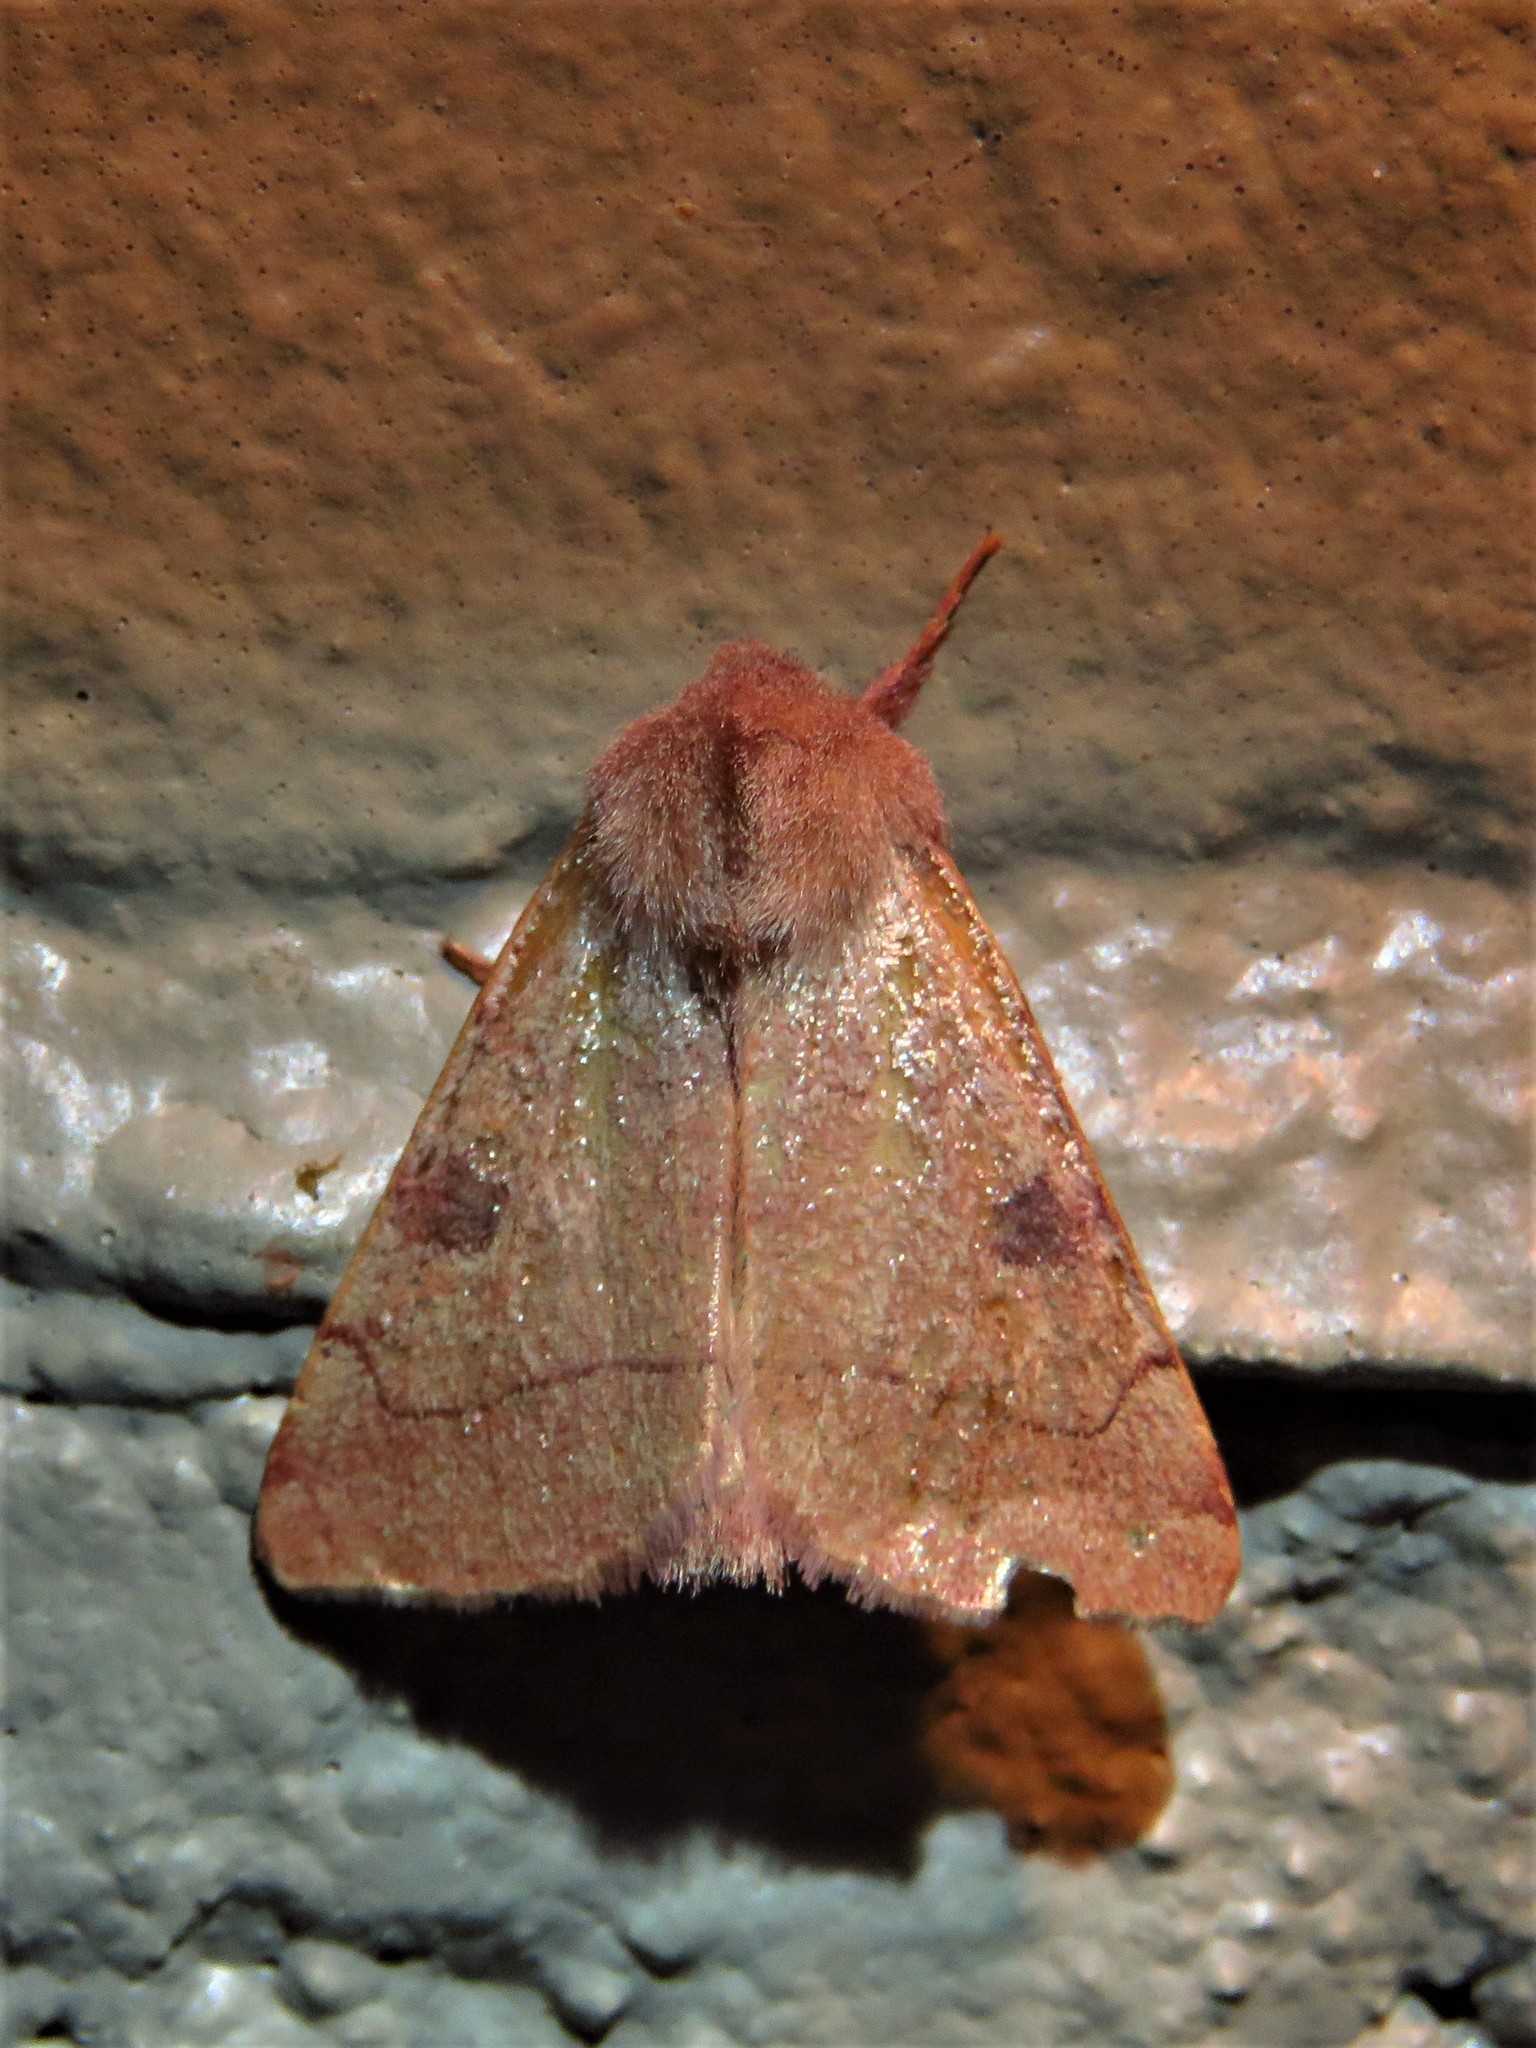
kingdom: Animalia
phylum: Arthropoda
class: Insecta
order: Lepidoptera
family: Noctuidae
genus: Choephora
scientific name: Choephora fungorum
